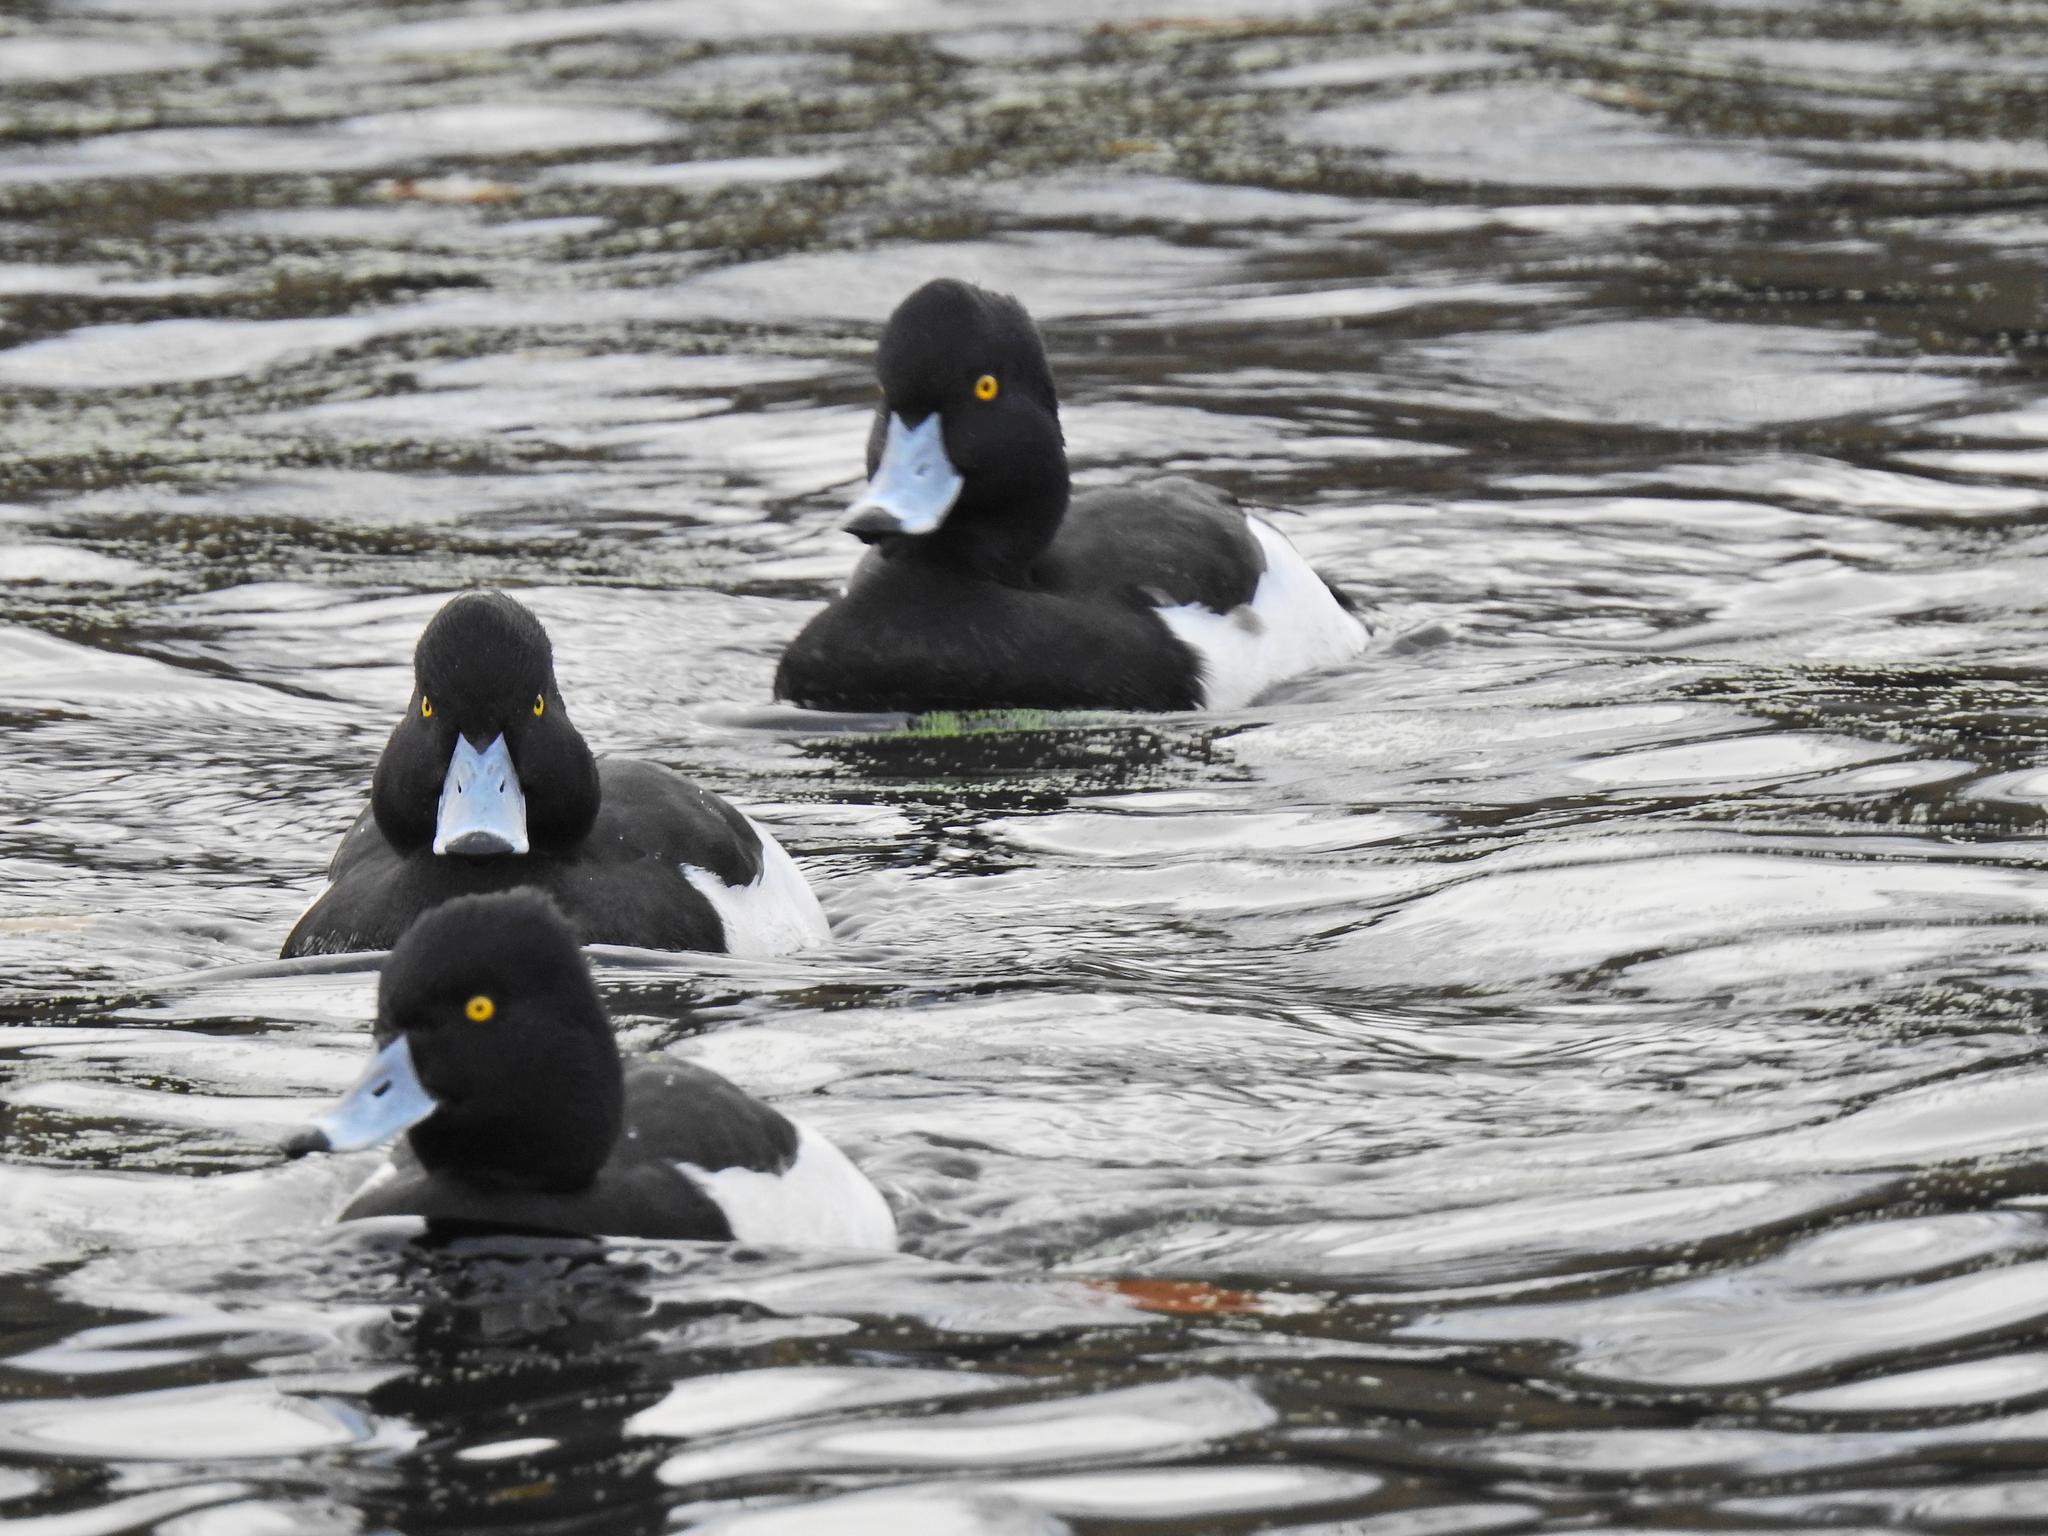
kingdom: Animalia
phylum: Chordata
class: Aves
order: Anseriformes
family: Anatidae
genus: Aythya
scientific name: Aythya fuligula
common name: Tufted duck
